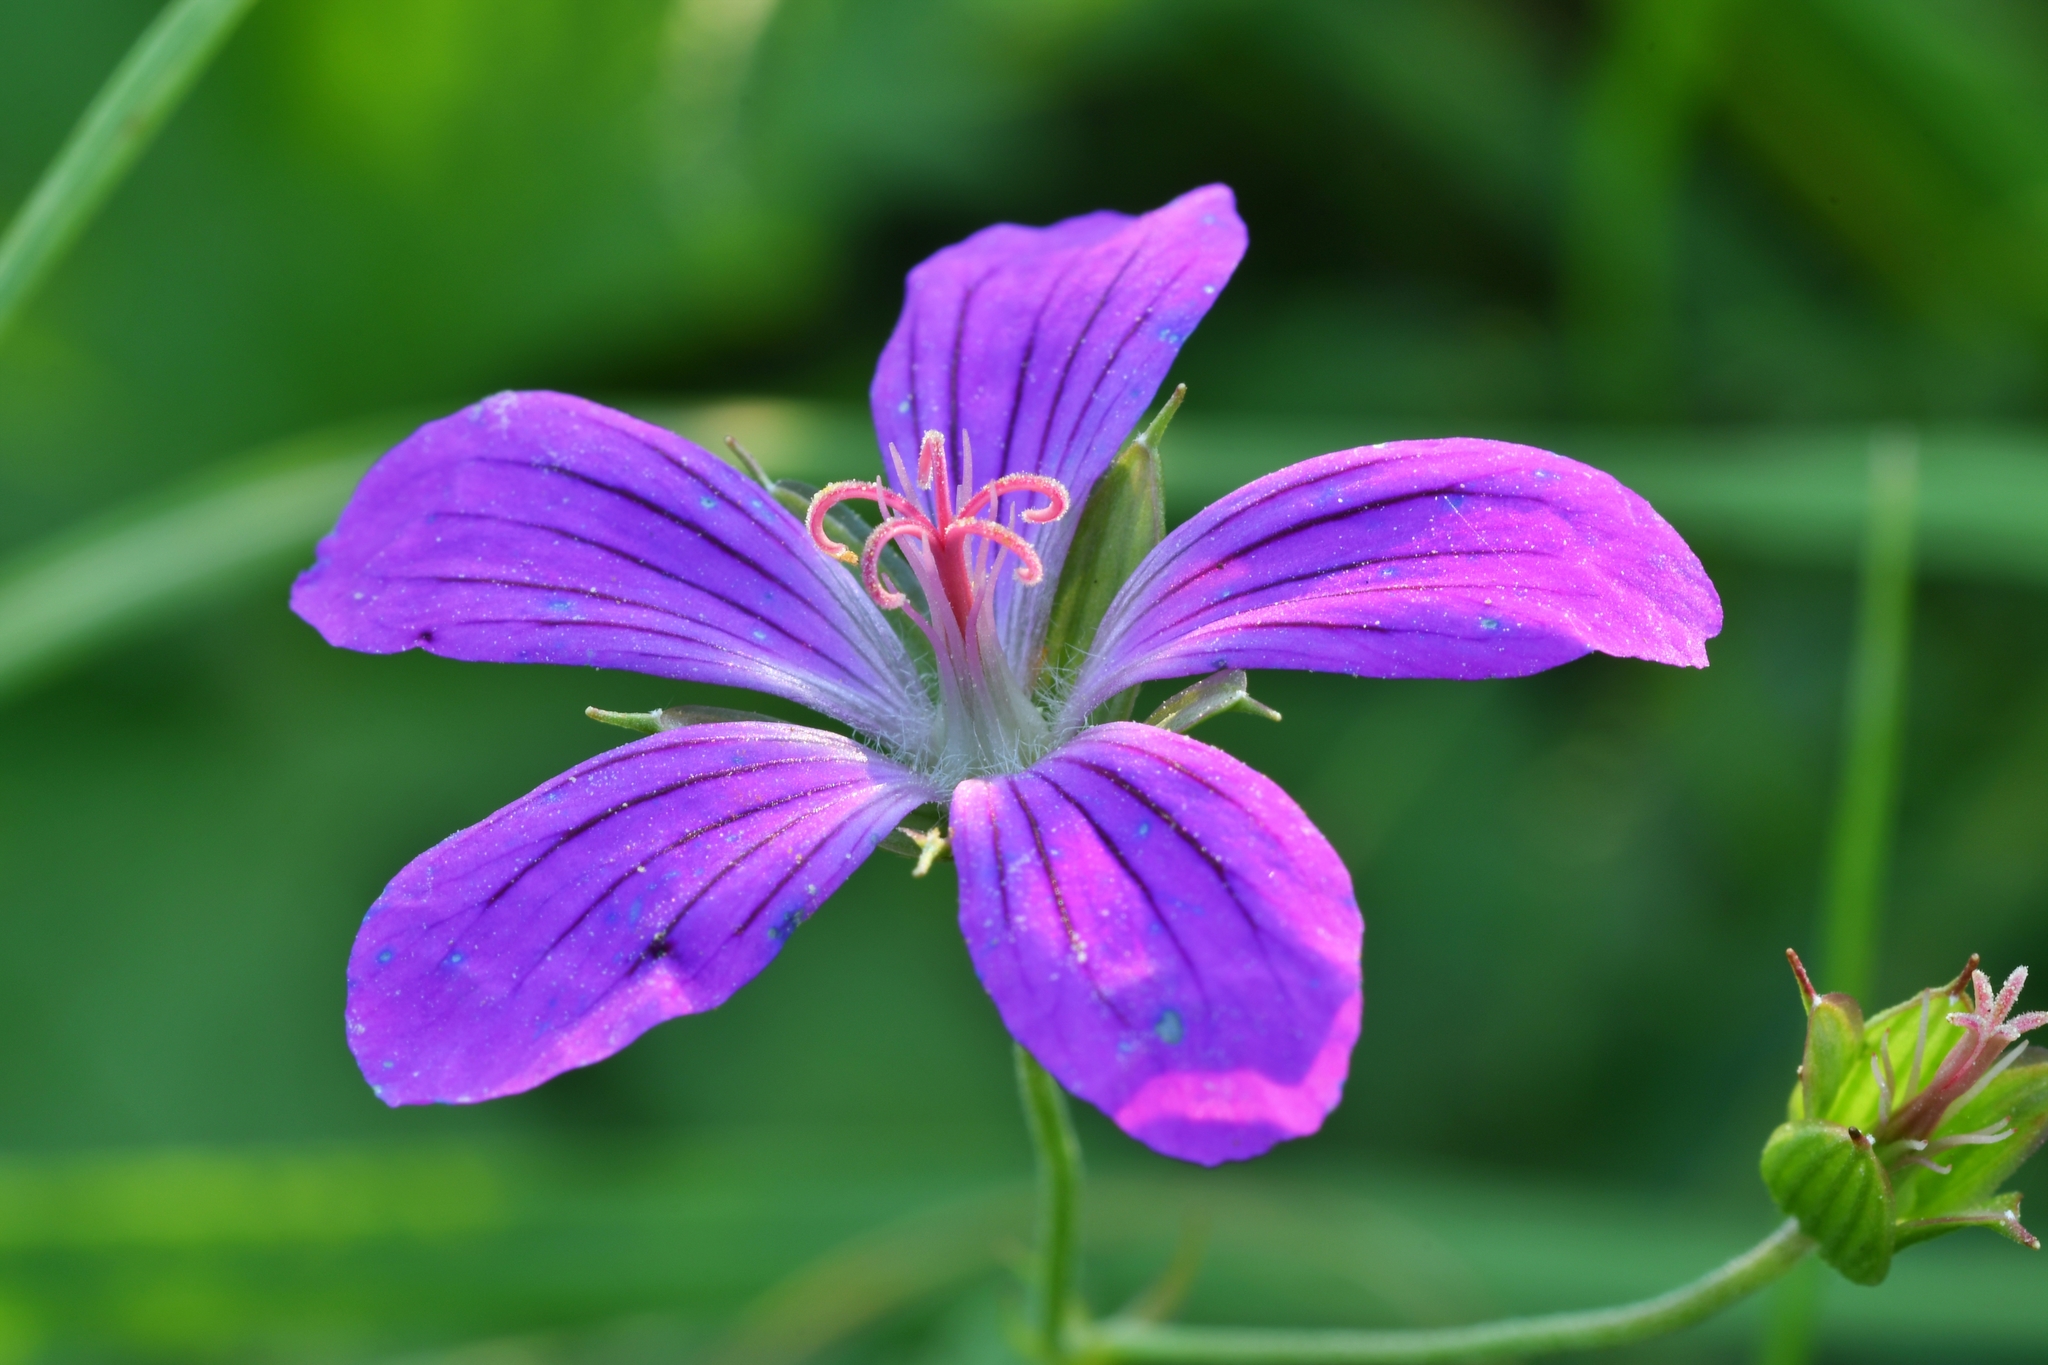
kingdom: Plantae
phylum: Tracheophyta
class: Magnoliopsida
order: Geraniales
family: Geraniaceae
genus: Geranium
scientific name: Geranium palustre
